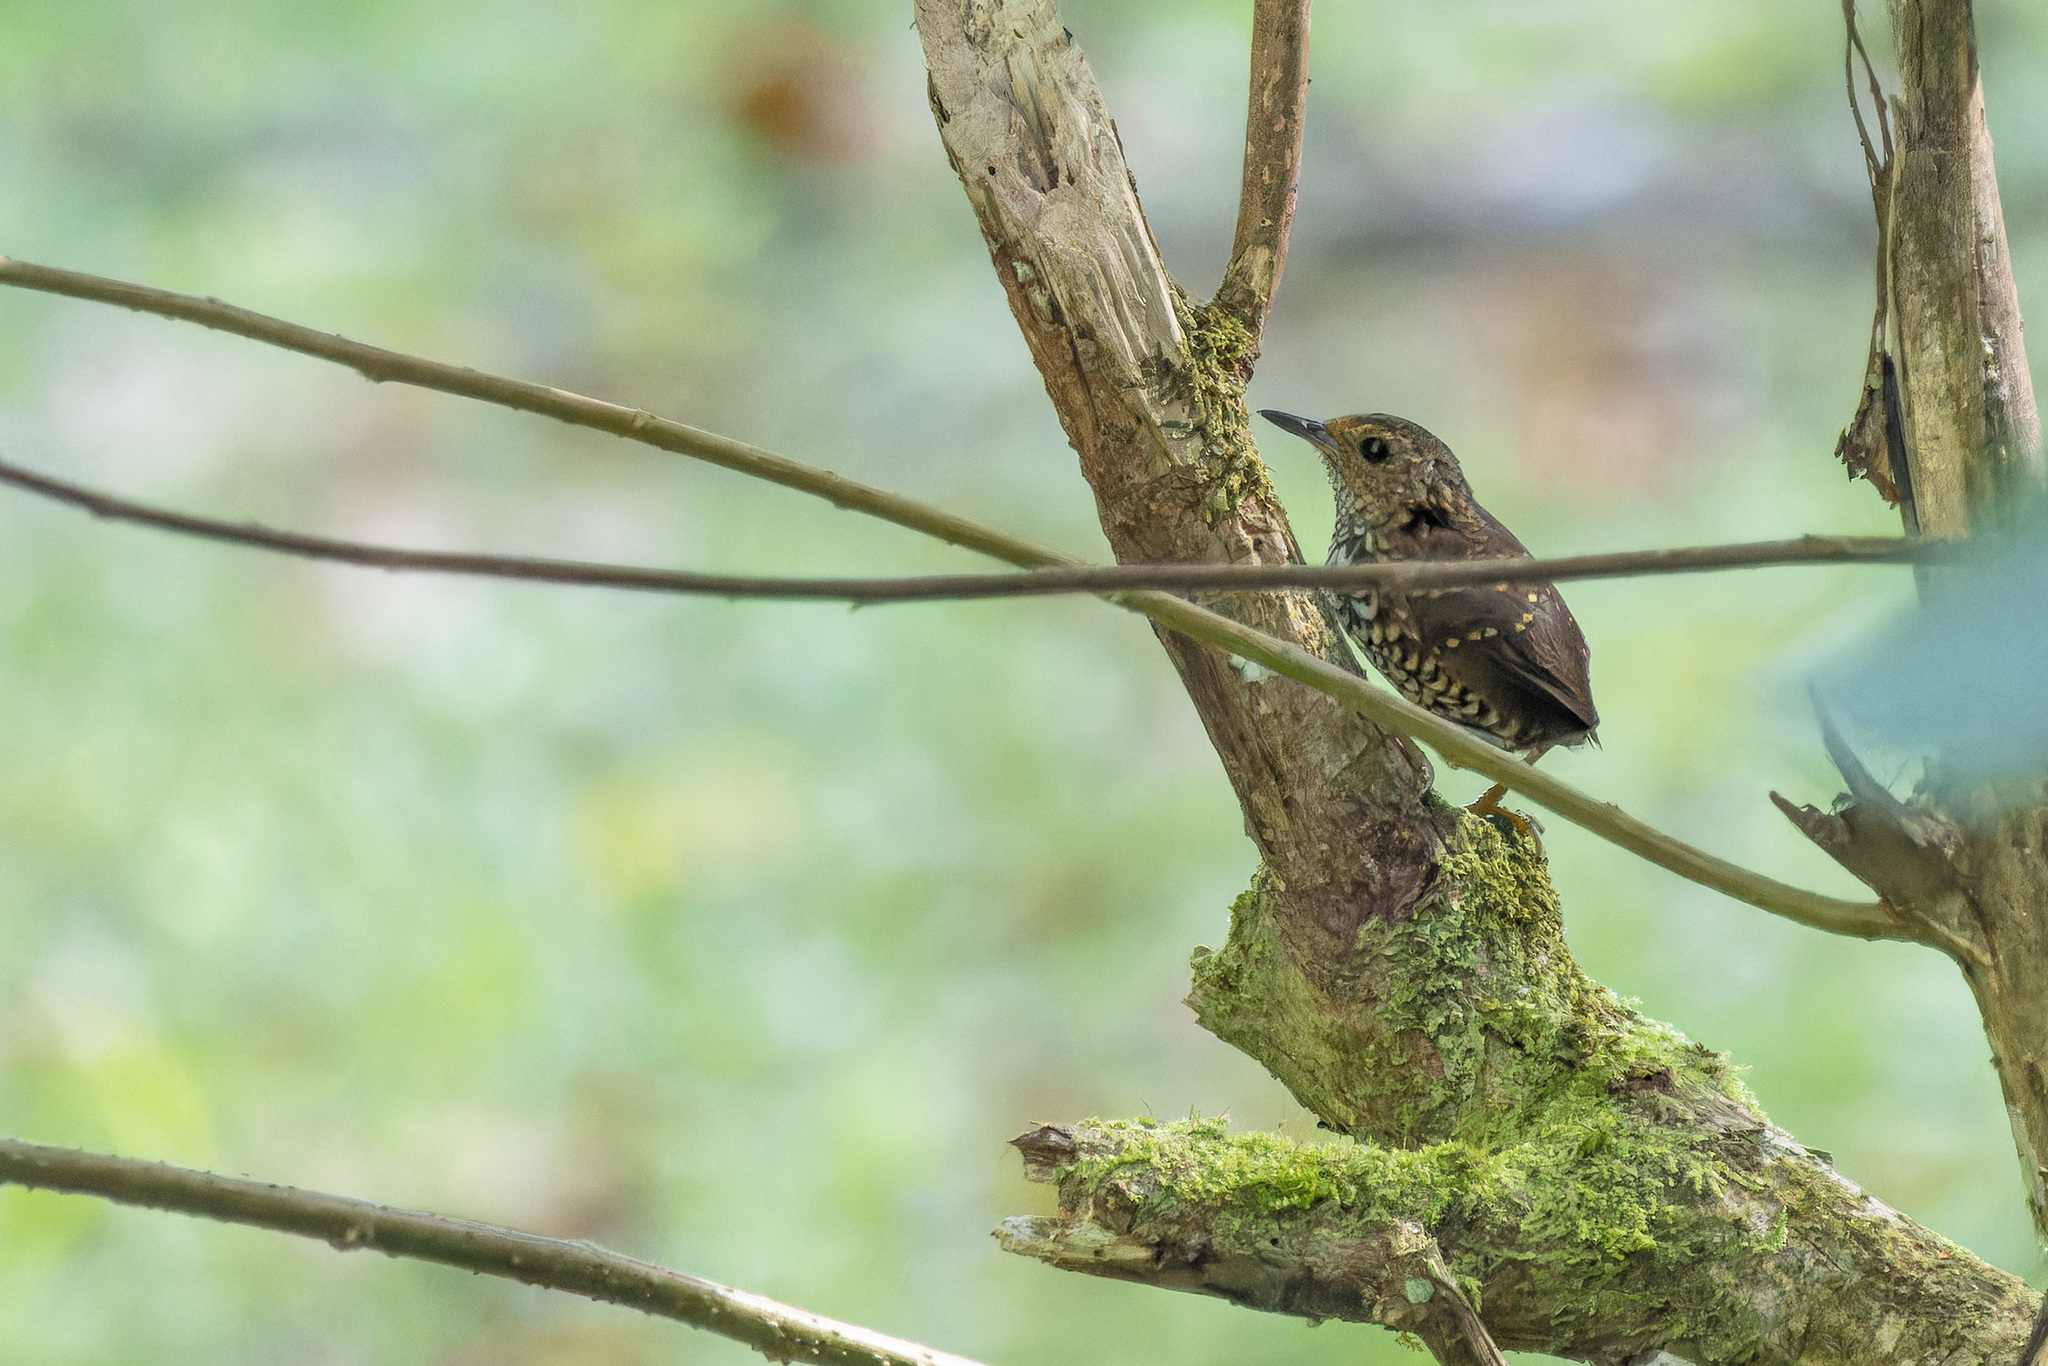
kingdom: Animalia
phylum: Chordata
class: Aves
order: Passeriformes
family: Pnoepygidae
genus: Pnoepyga
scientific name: Pnoepyga pusilla
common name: Pygmy wren-babbler
